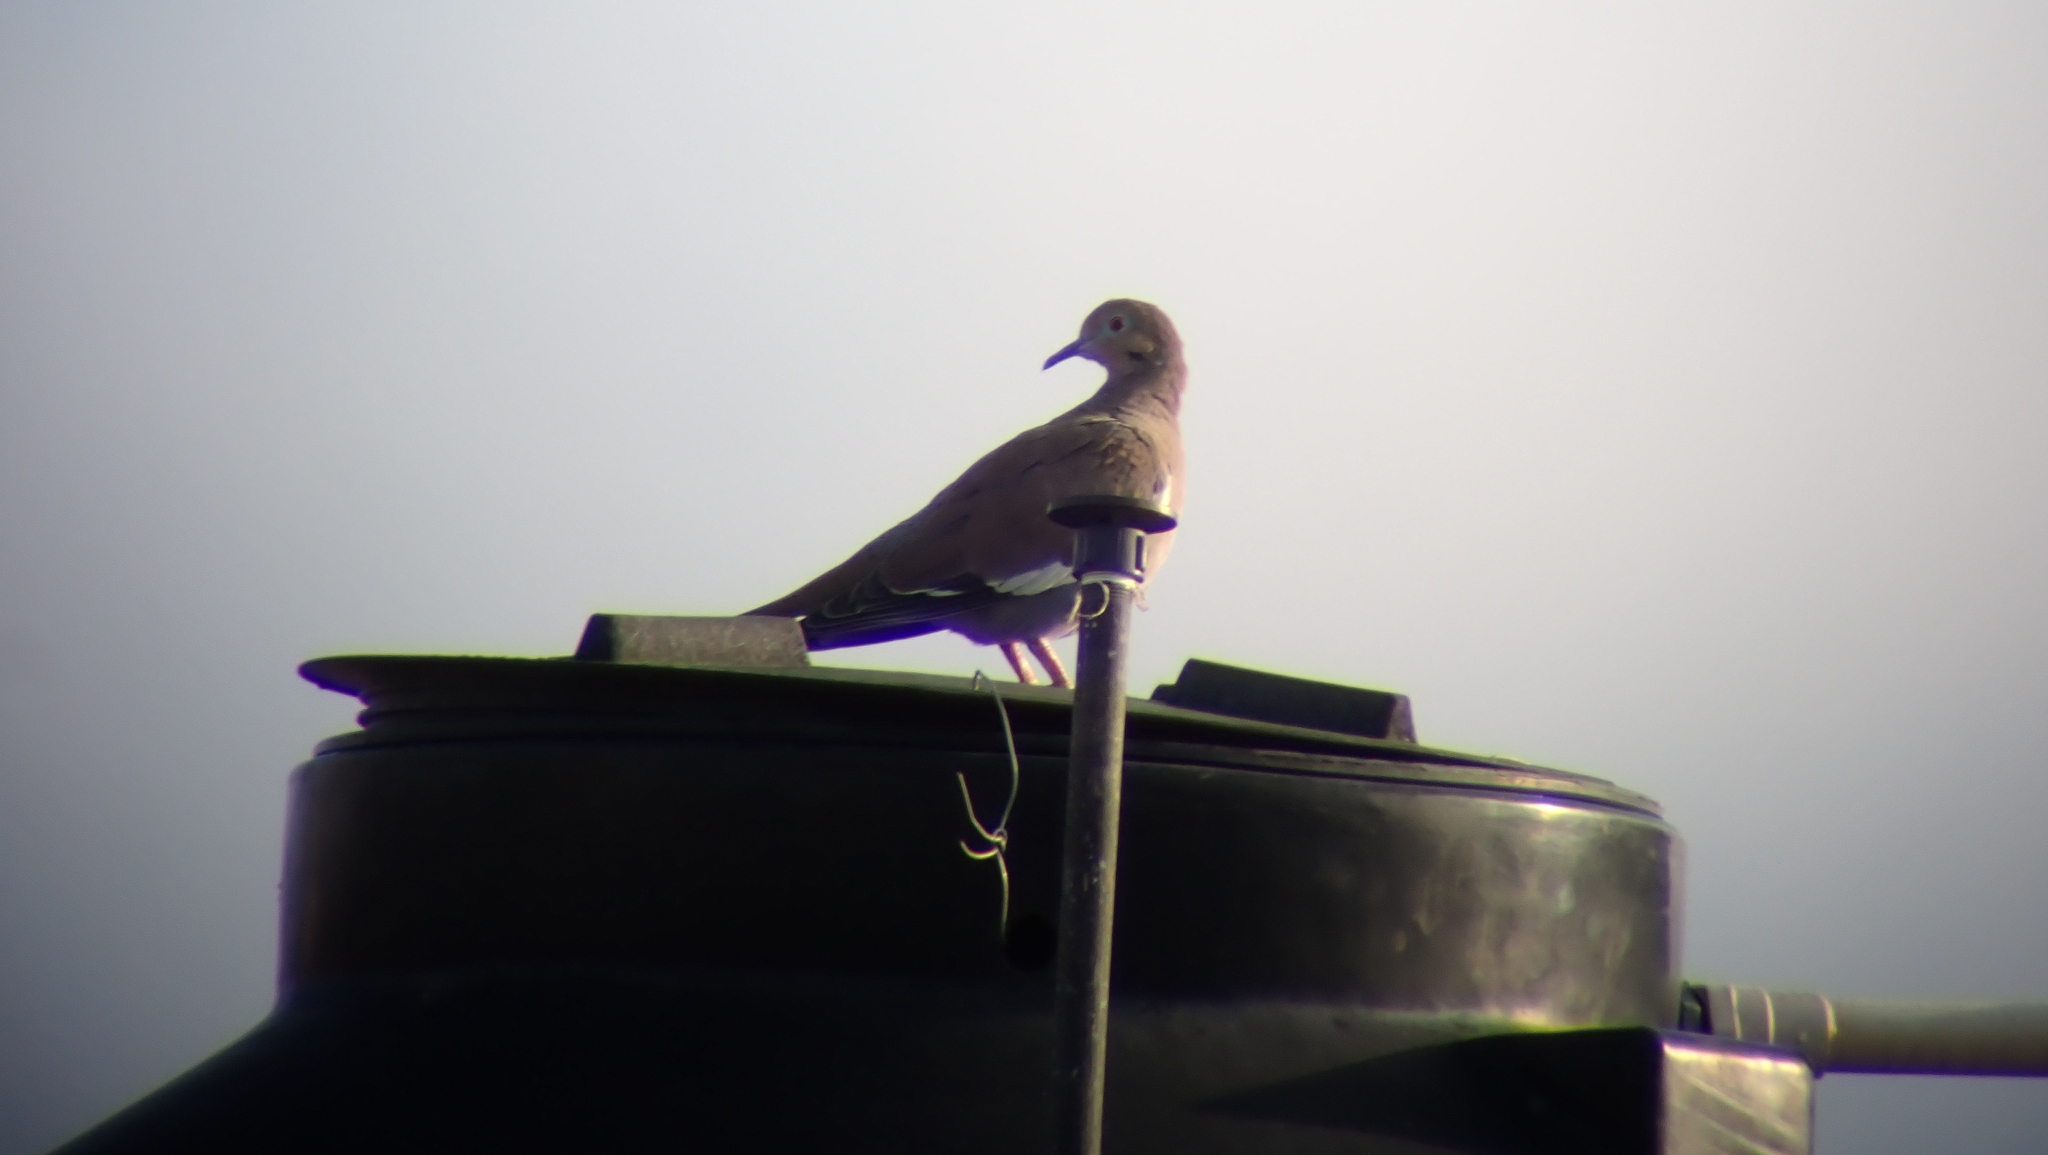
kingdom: Animalia
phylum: Chordata
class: Aves
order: Columbiformes
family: Columbidae
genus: Zenaida
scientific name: Zenaida asiatica
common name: White-winged dove
